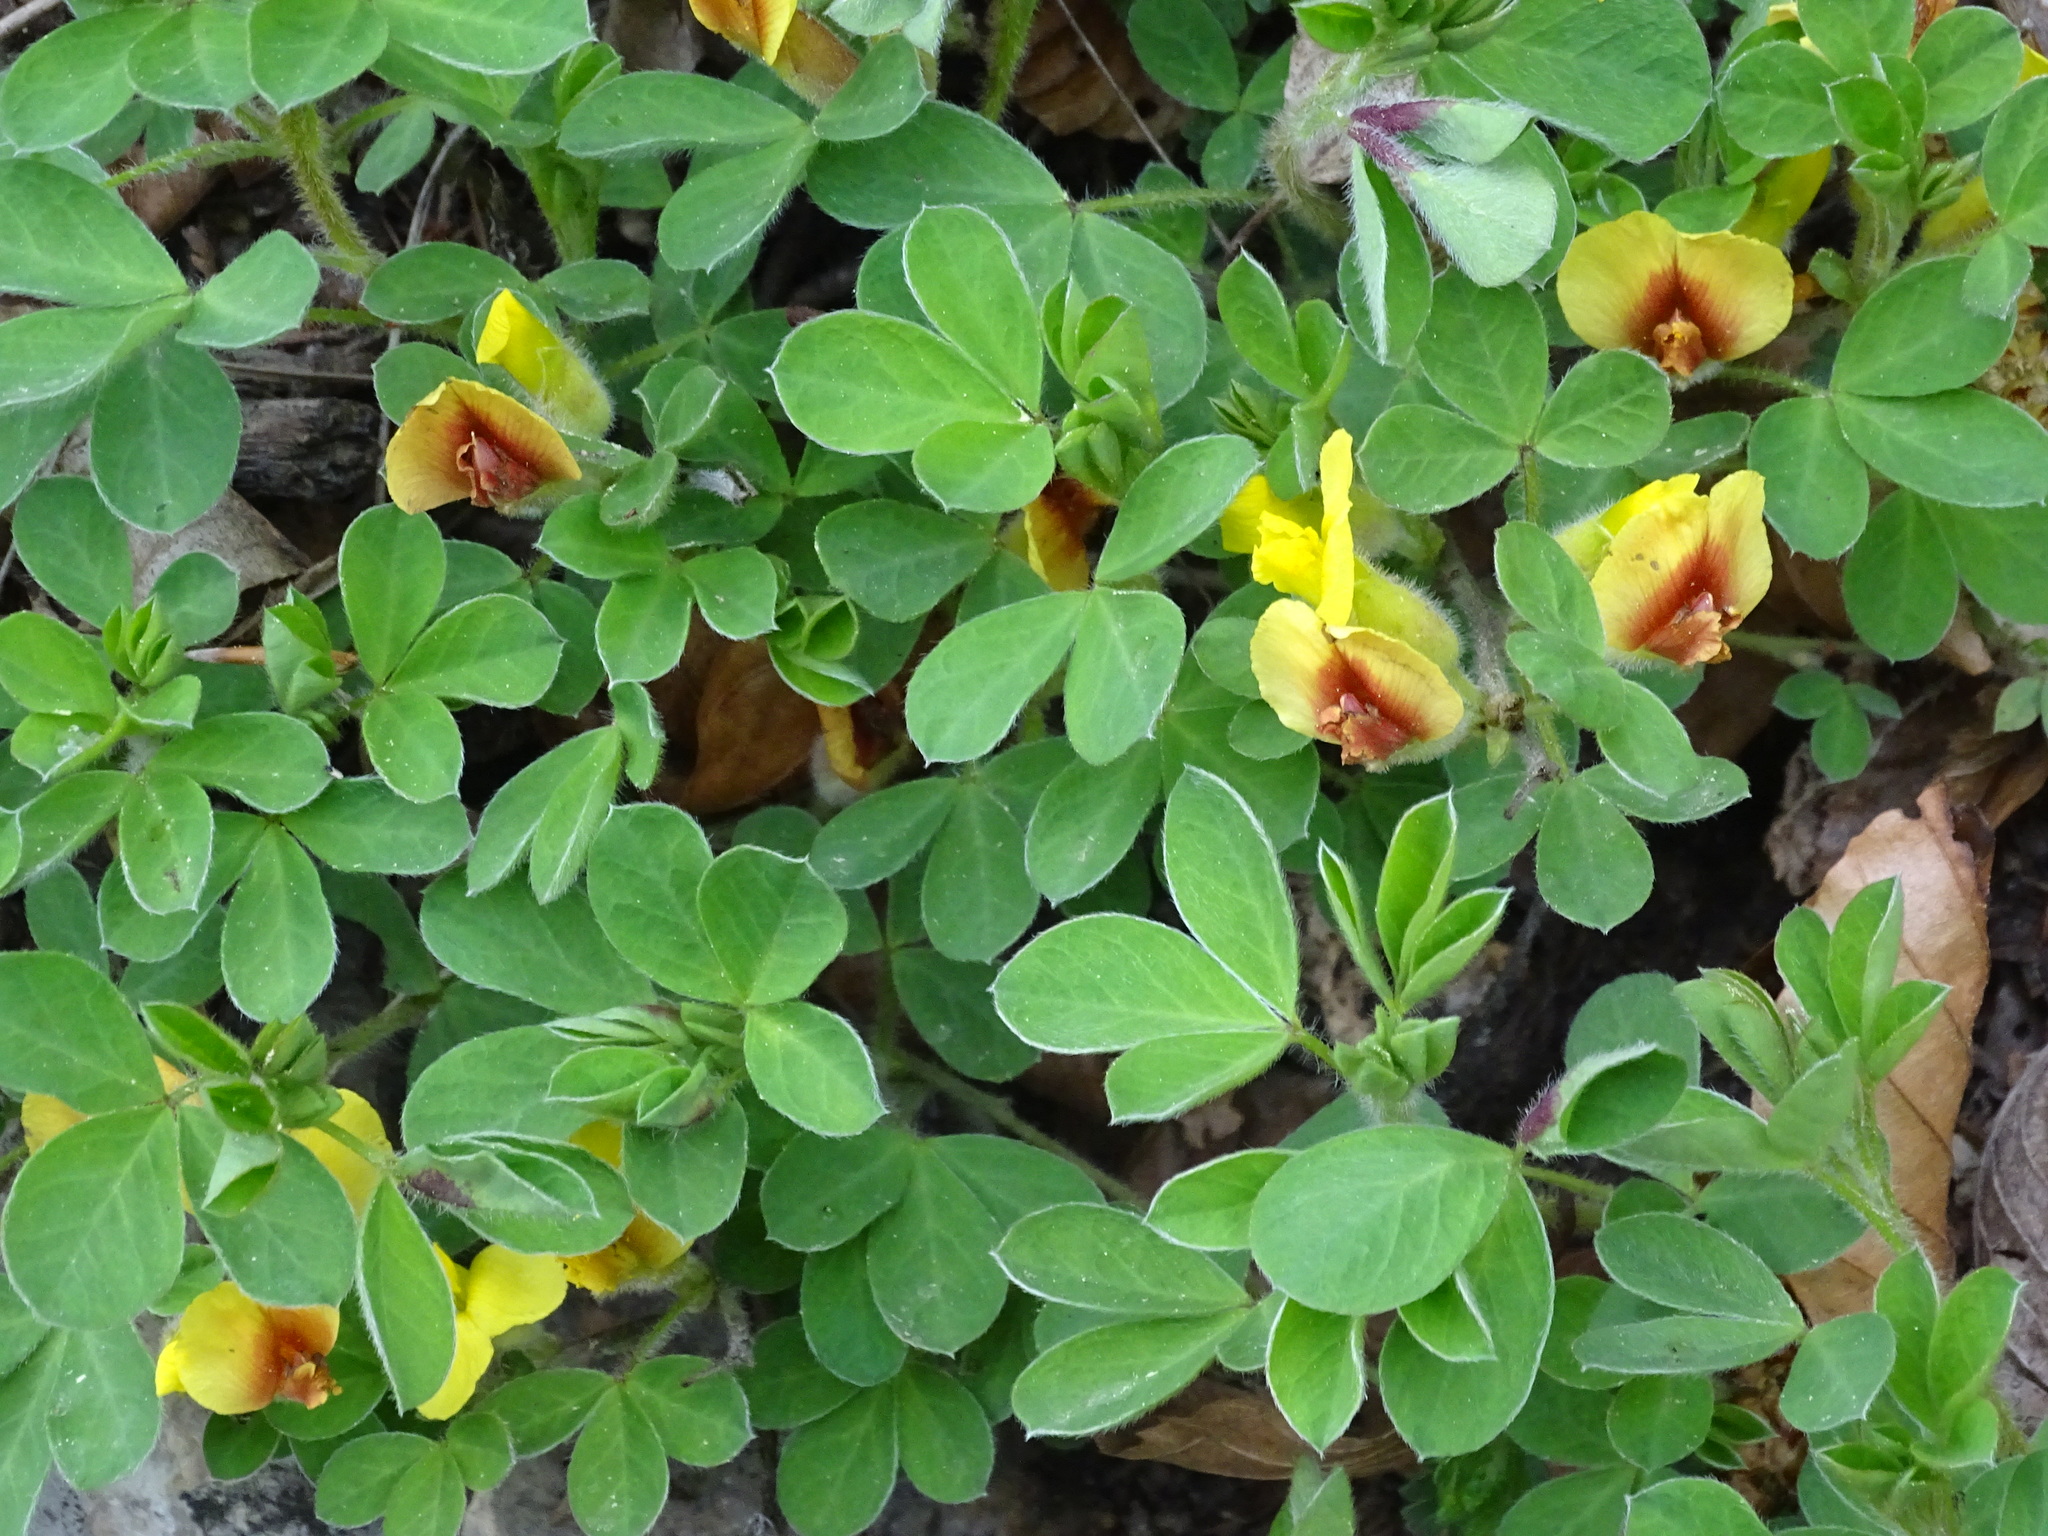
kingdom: Plantae
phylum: Tracheophyta
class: Magnoliopsida
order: Fabales
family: Fabaceae
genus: Chamaecytisus
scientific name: Chamaecytisus hirsutus
